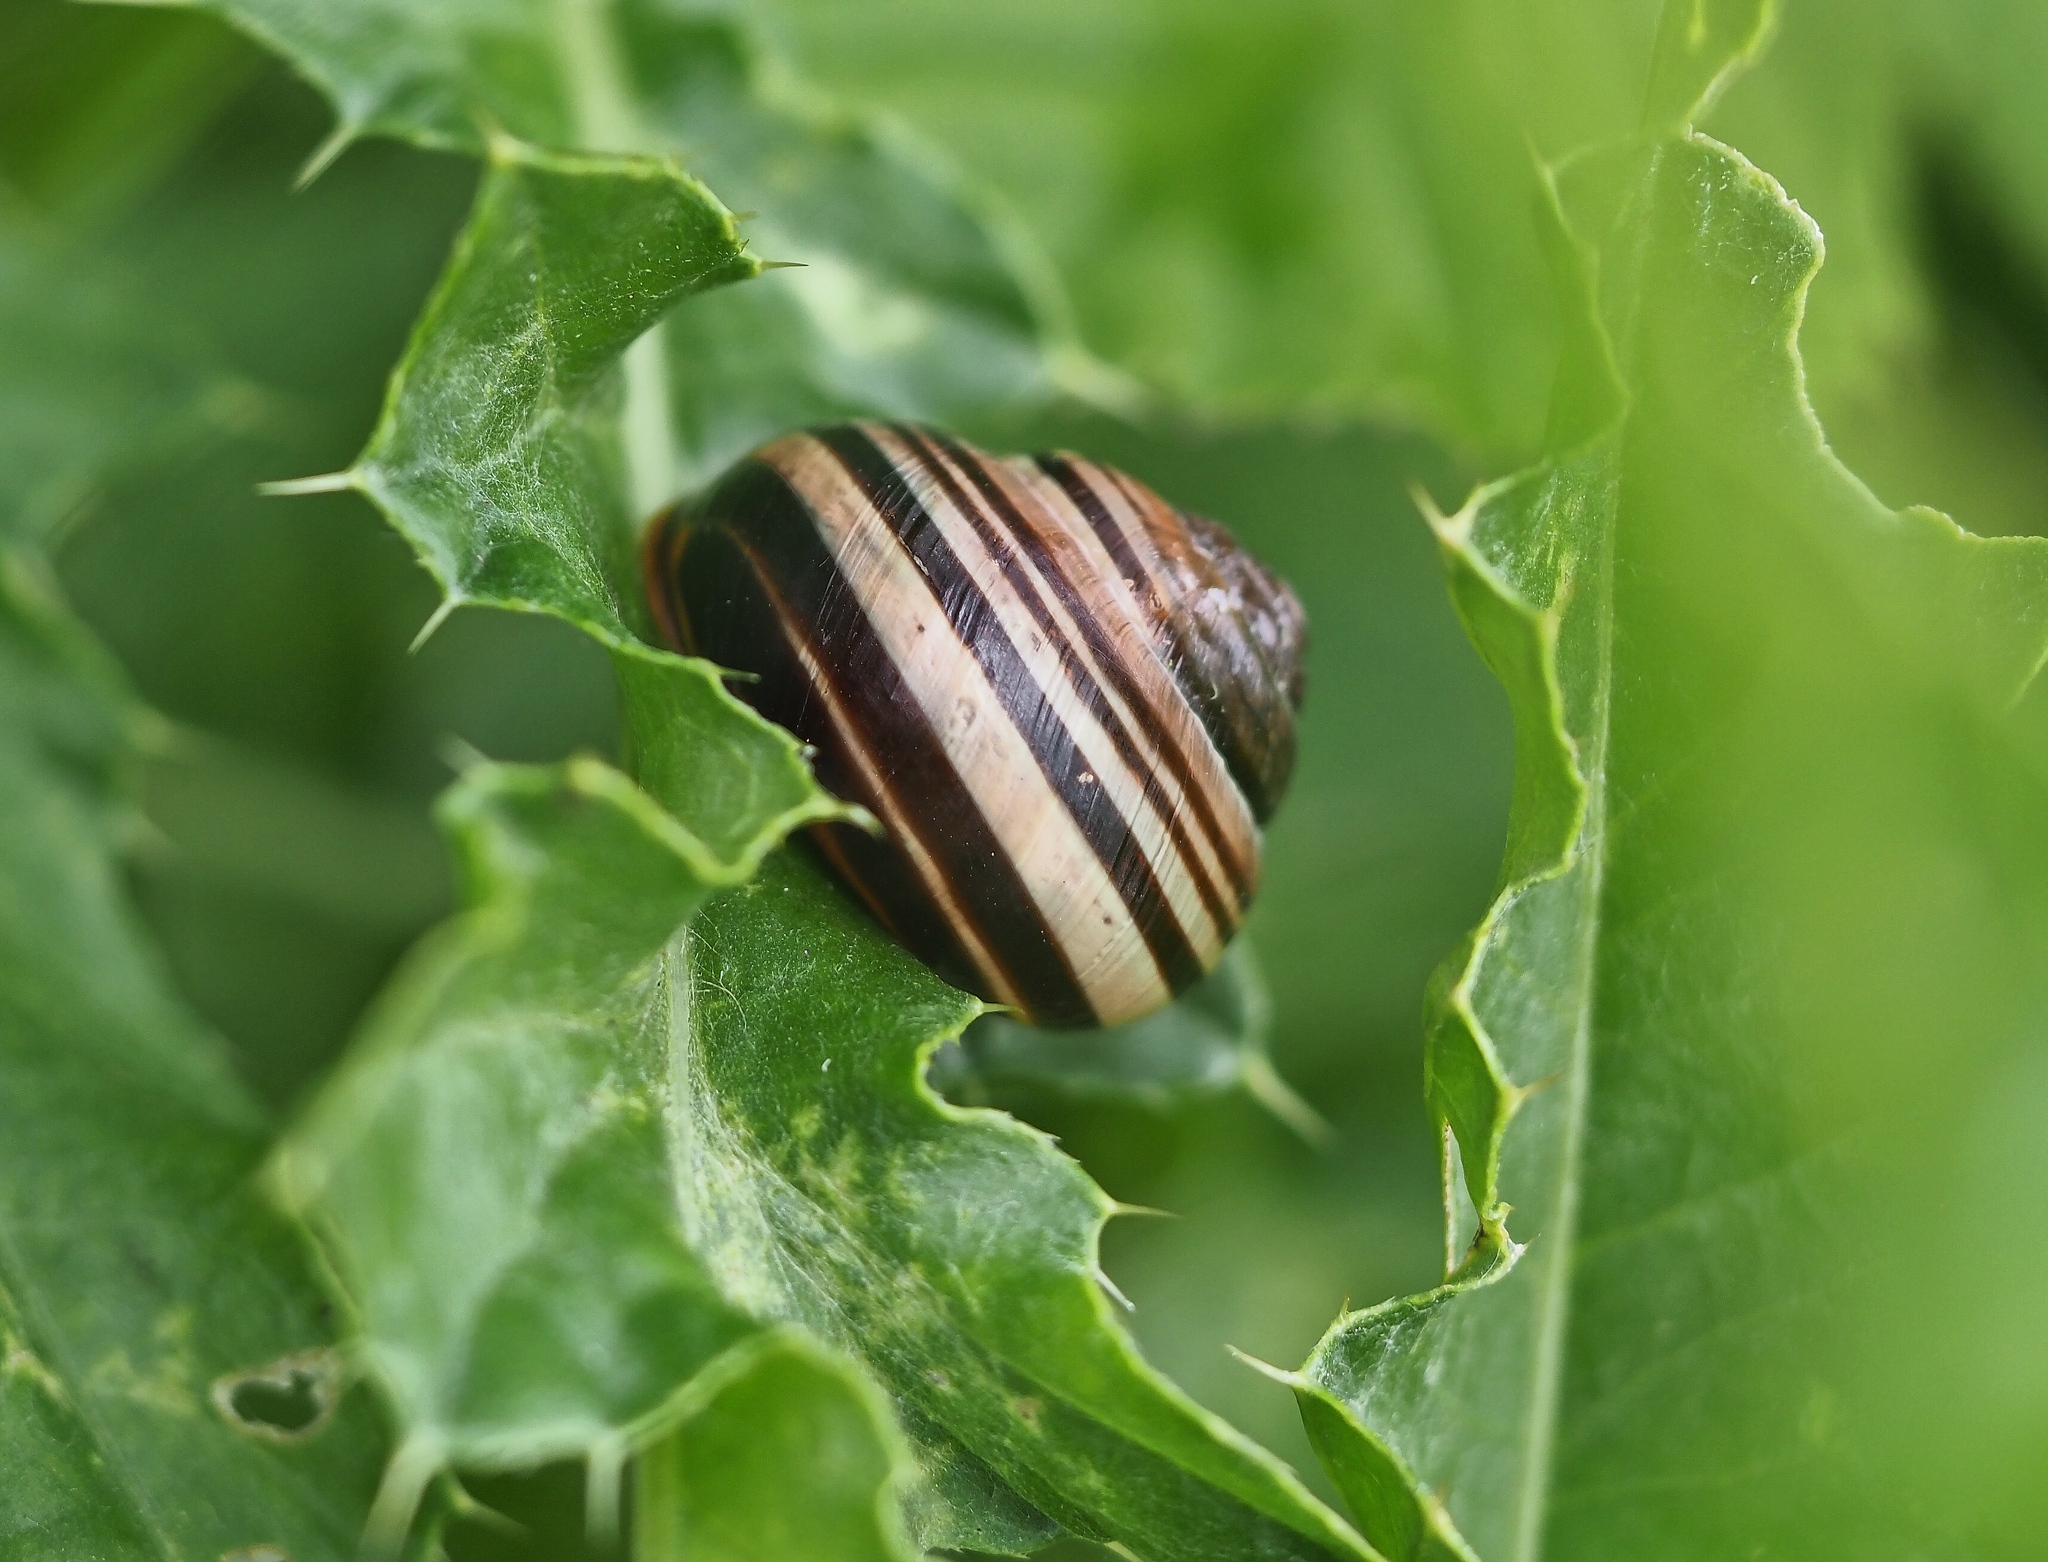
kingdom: Animalia
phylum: Mollusca
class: Gastropoda
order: Stylommatophora
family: Helicidae
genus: Cepaea
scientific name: Cepaea nemoralis
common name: Grovesnail
